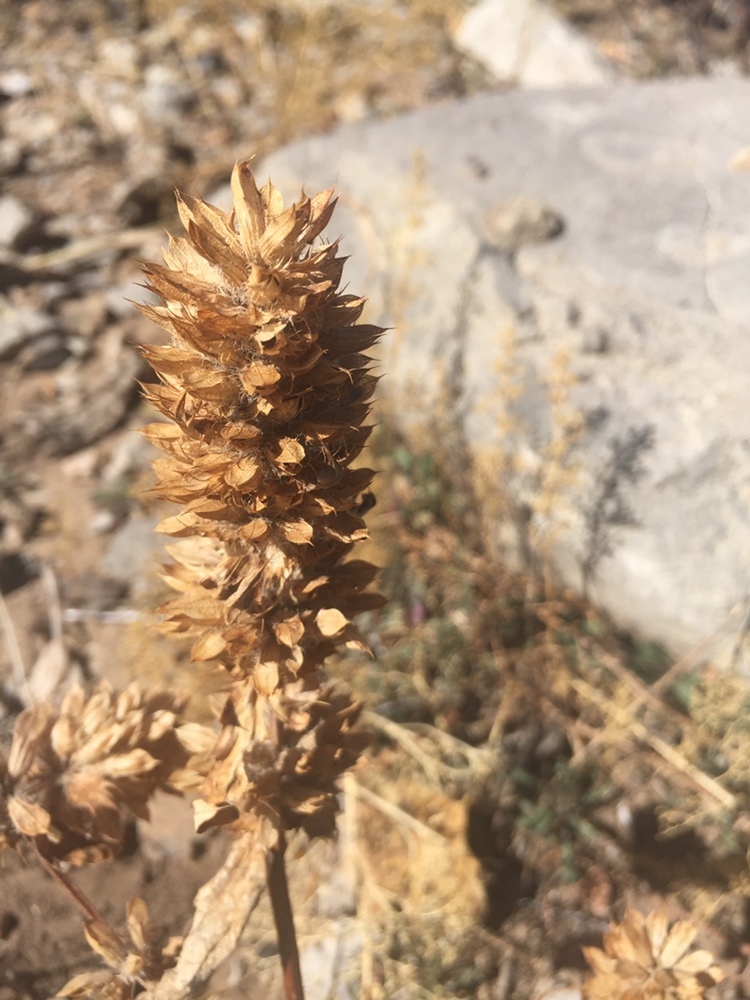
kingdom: Plantae
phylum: Tracheophyta
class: Magnoliopsida
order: Lamiales
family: Lamiaceae
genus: Dracocephalum
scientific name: Dracocephalum parviflorum
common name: American dragonhead
